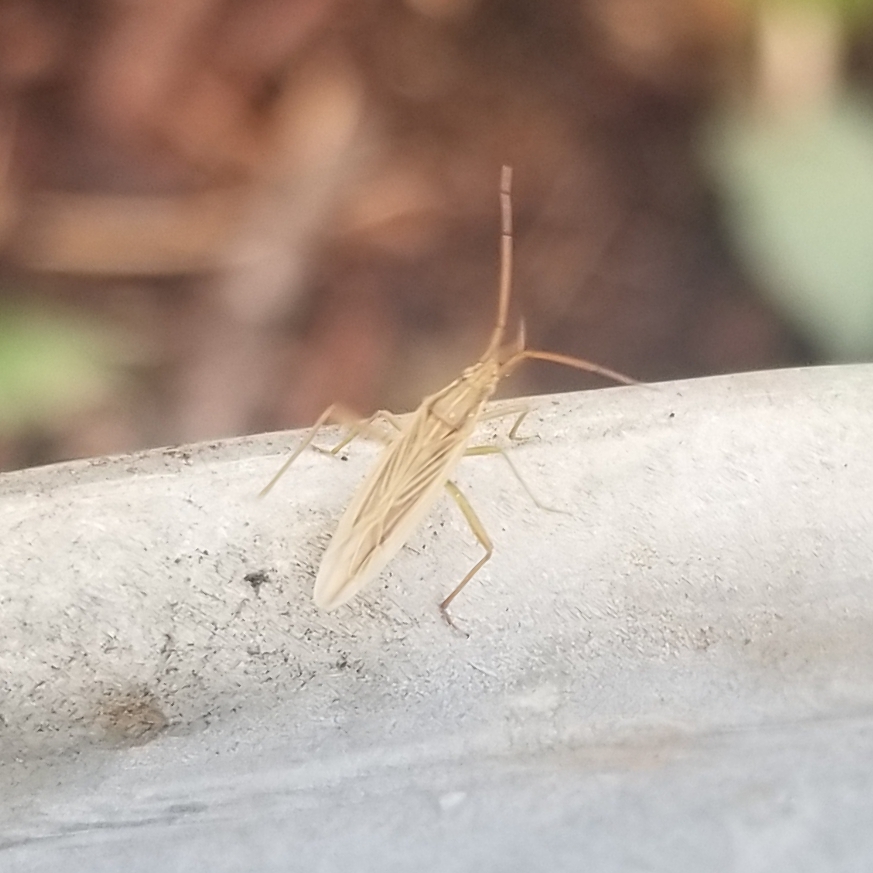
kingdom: Animalia
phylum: Arthropoda
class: Insecta
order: Hemiptera
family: Miridae
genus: Stenodema
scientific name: Stenodema trispinosa
